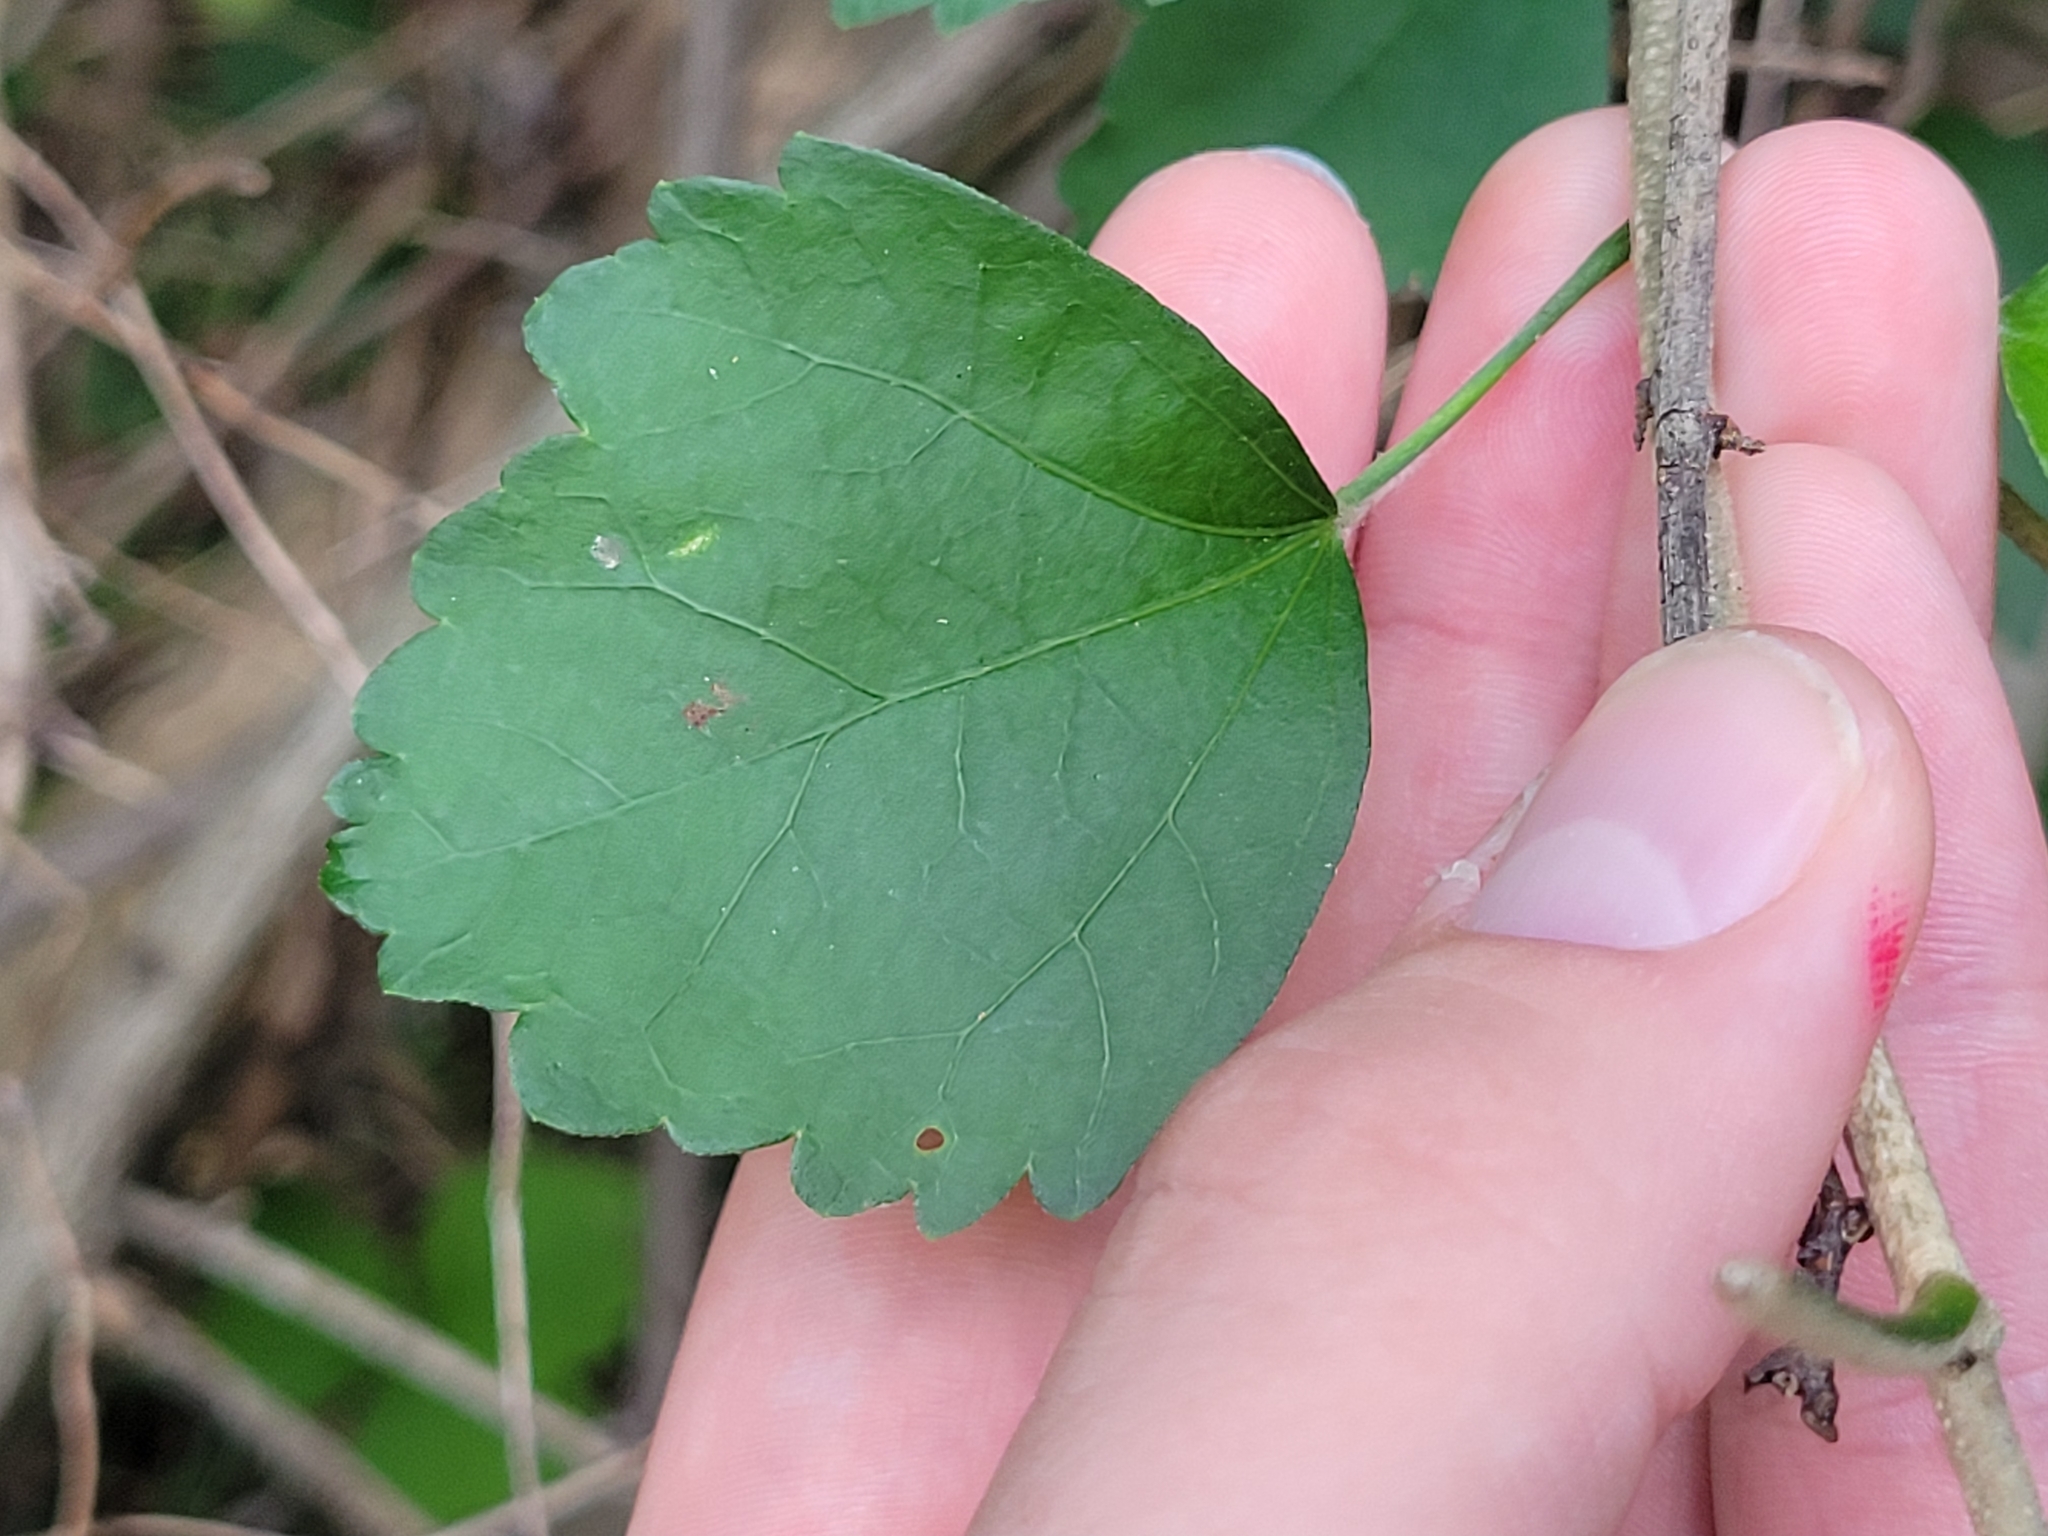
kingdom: Plantae
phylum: Tracheophyta
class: Magnoliopsida
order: Malvales
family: Malvaceae
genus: Hibiscus
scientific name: Hibiscus syriacus
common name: Syrian ketmia
